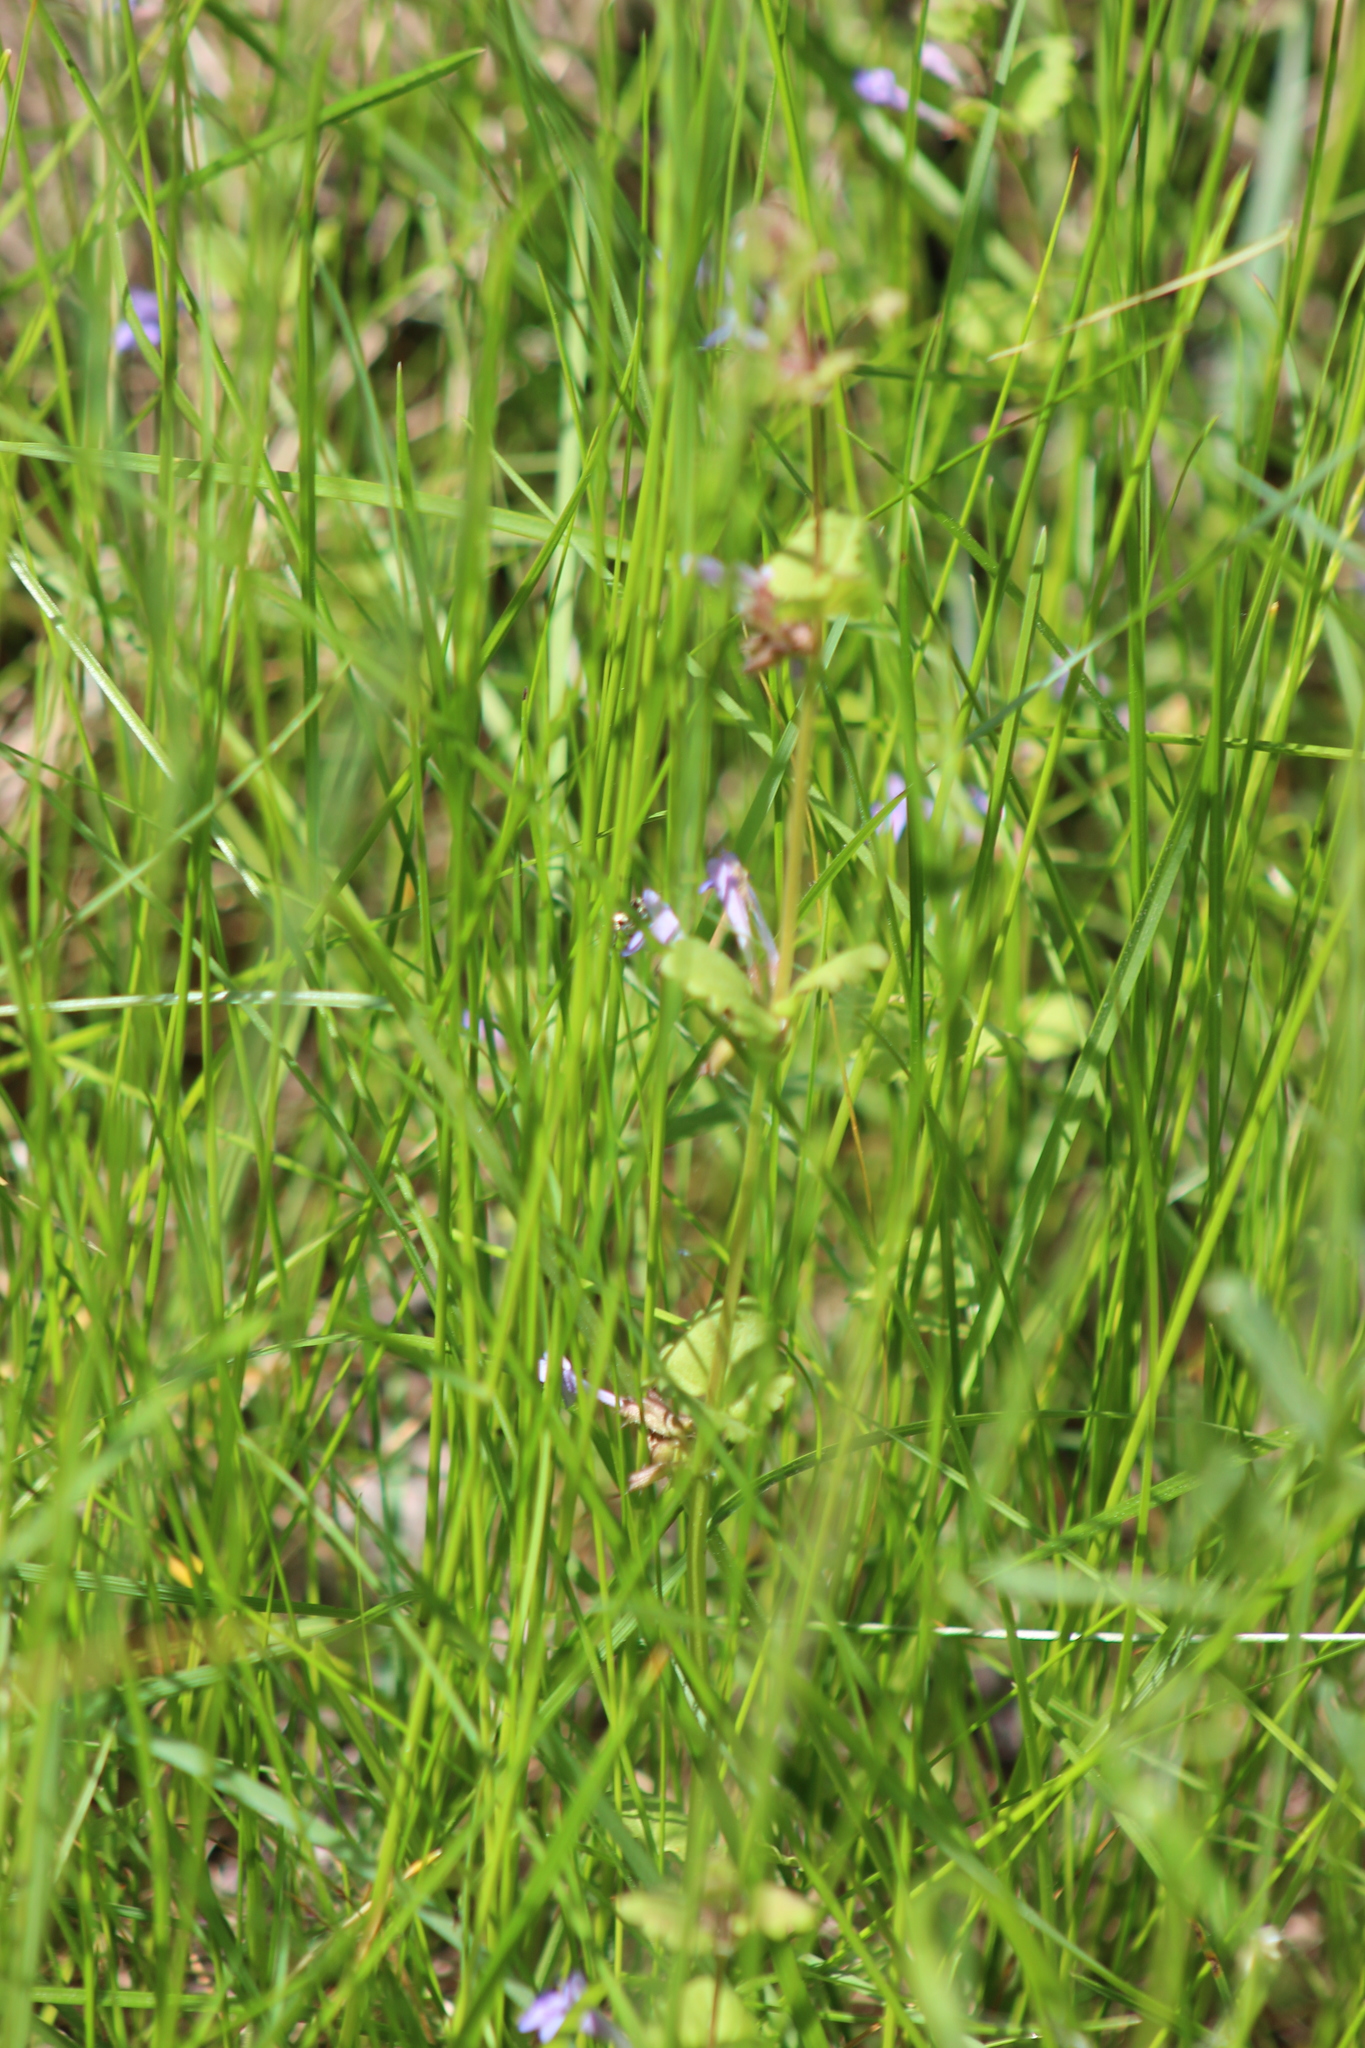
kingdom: Plantae
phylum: Tracheophyta
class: Magnoliopsida
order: Lamiales
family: Lamiaceae
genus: Glechoma
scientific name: Glechoma hederacea
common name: Ground ivy
